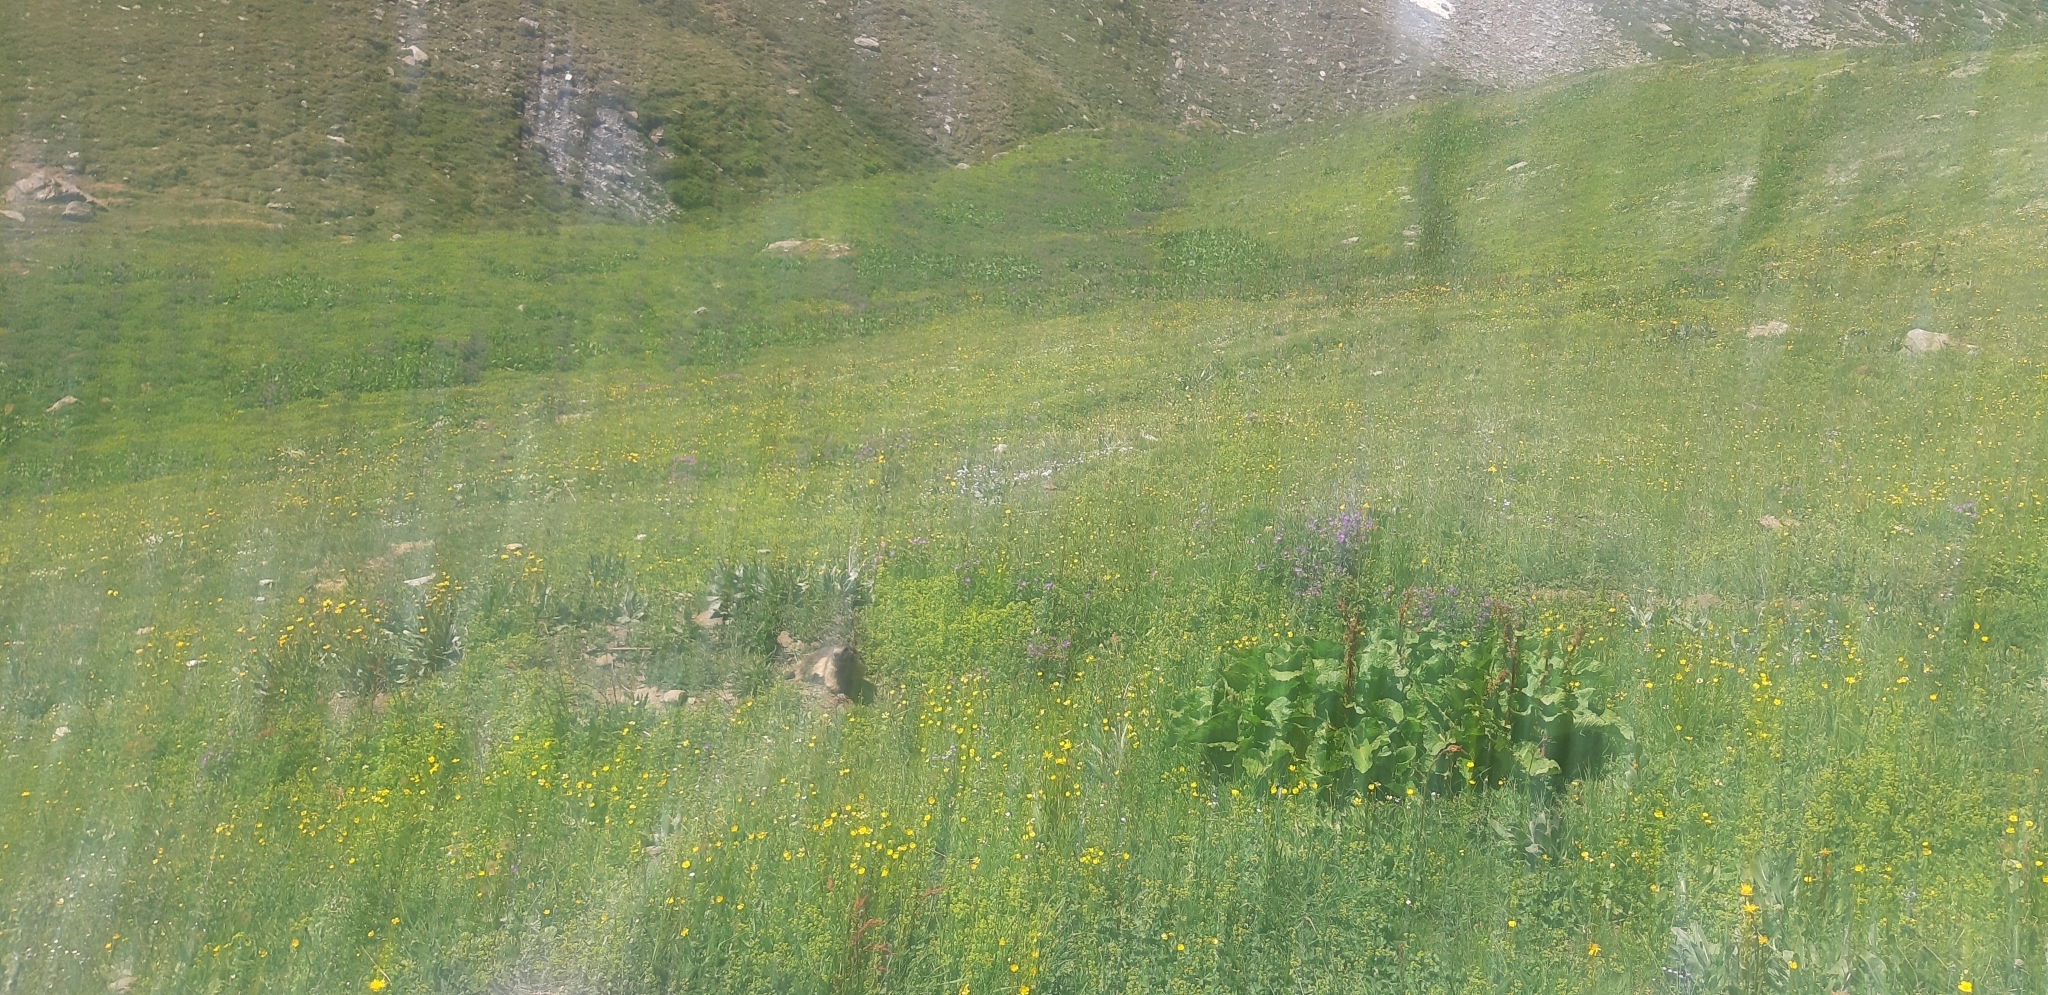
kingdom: Animalia
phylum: Chordata
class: Mammalia
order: Rodentia
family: Sciuridae
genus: Marmota
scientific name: Marmota marmota
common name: Alpine marmot
